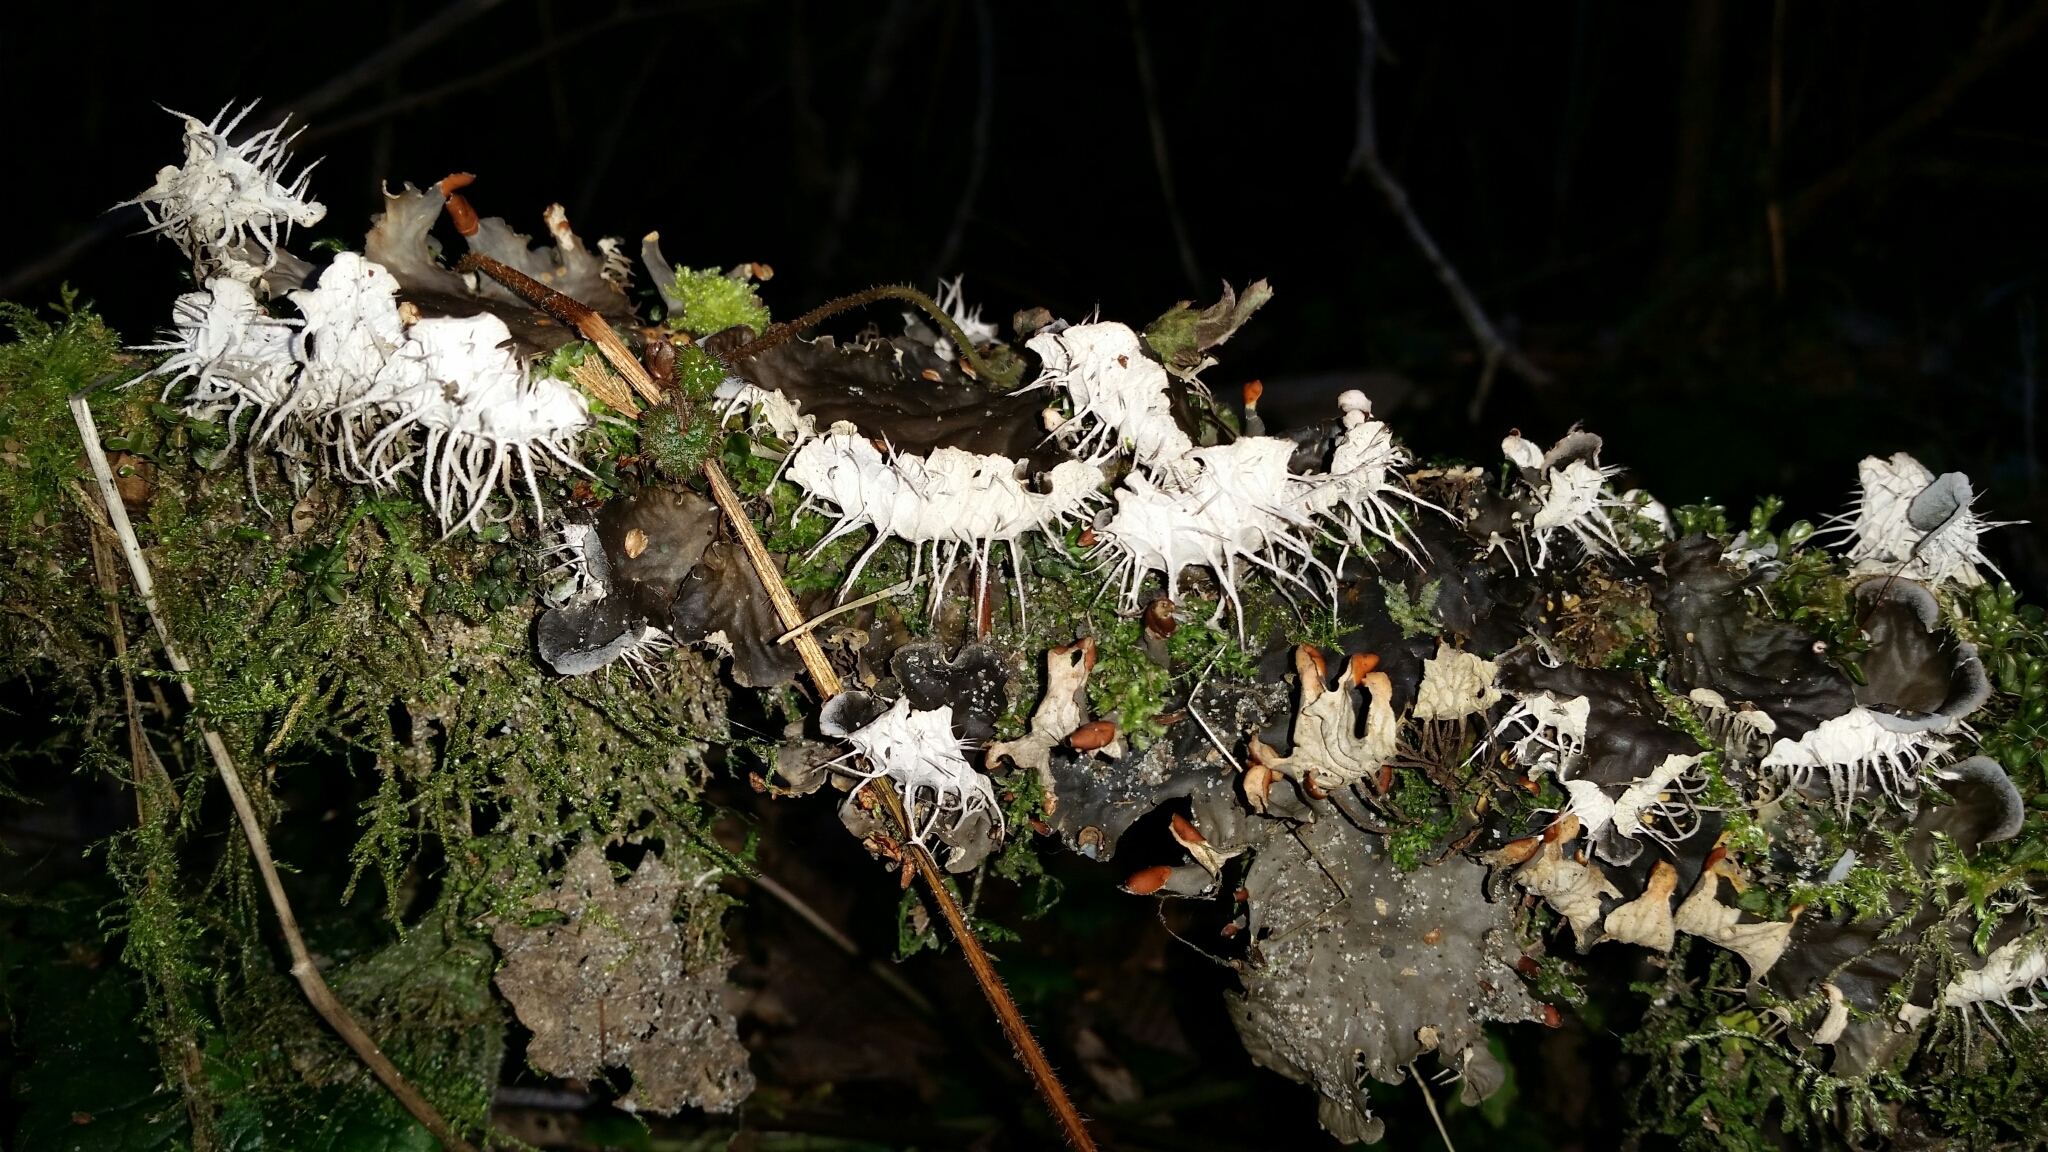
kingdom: Fungi
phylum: Ascomycota
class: Lecanoromycetes
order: Peltigerales
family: Peltigeraceae
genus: Peltigera
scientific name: Peltigera membranacea
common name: Membranous pelt lichen
